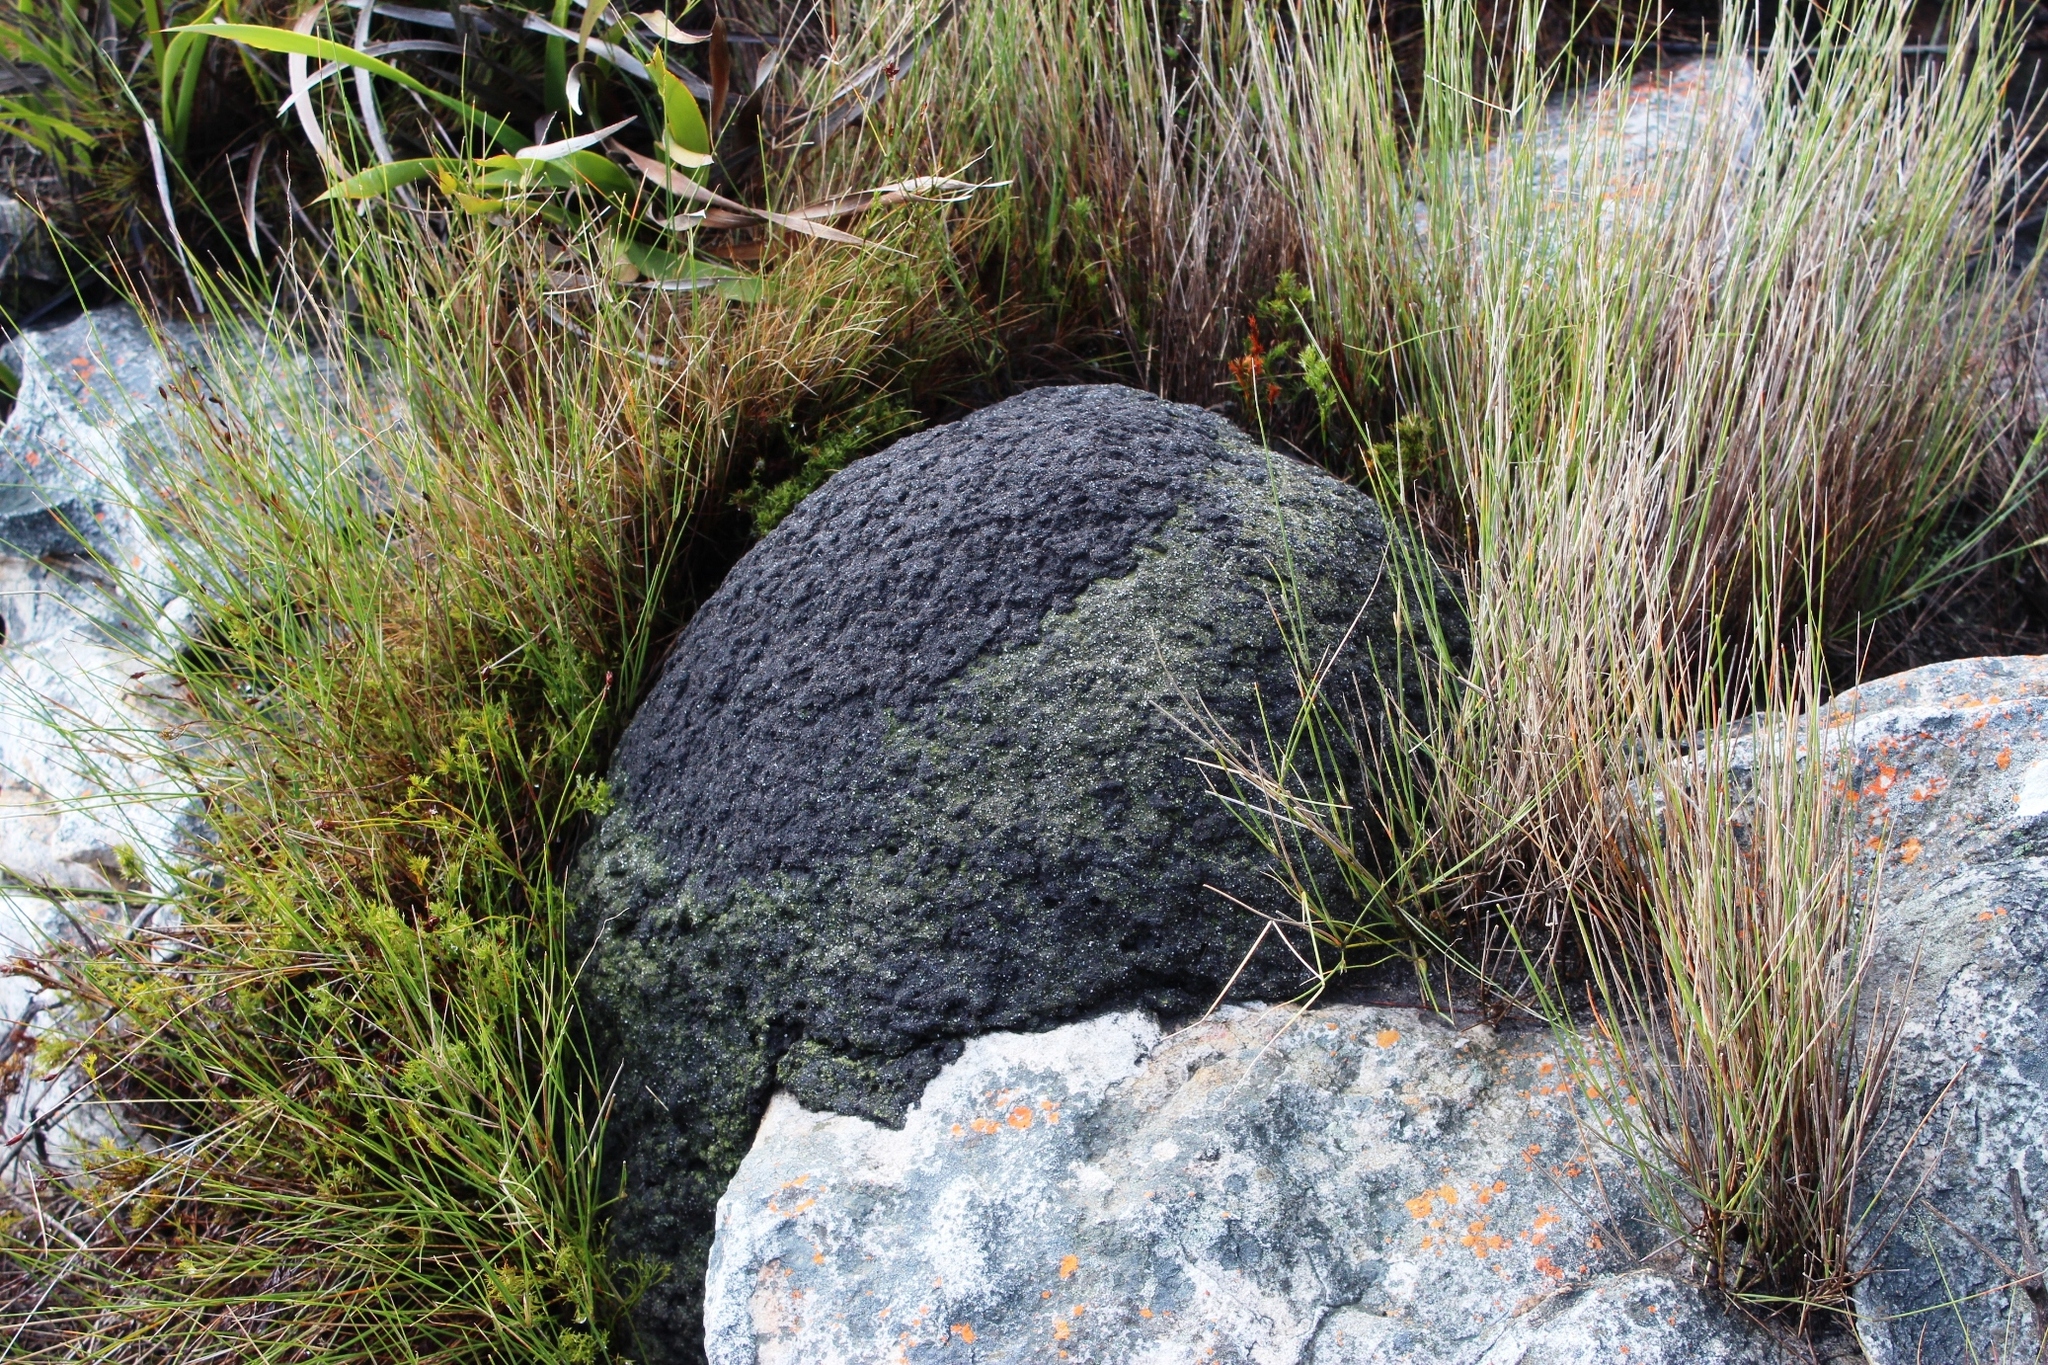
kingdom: Animalia
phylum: Arthropoda
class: Insecta
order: Blattodea
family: Termitidae
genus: Amitermes
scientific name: Amitermes hastatus
